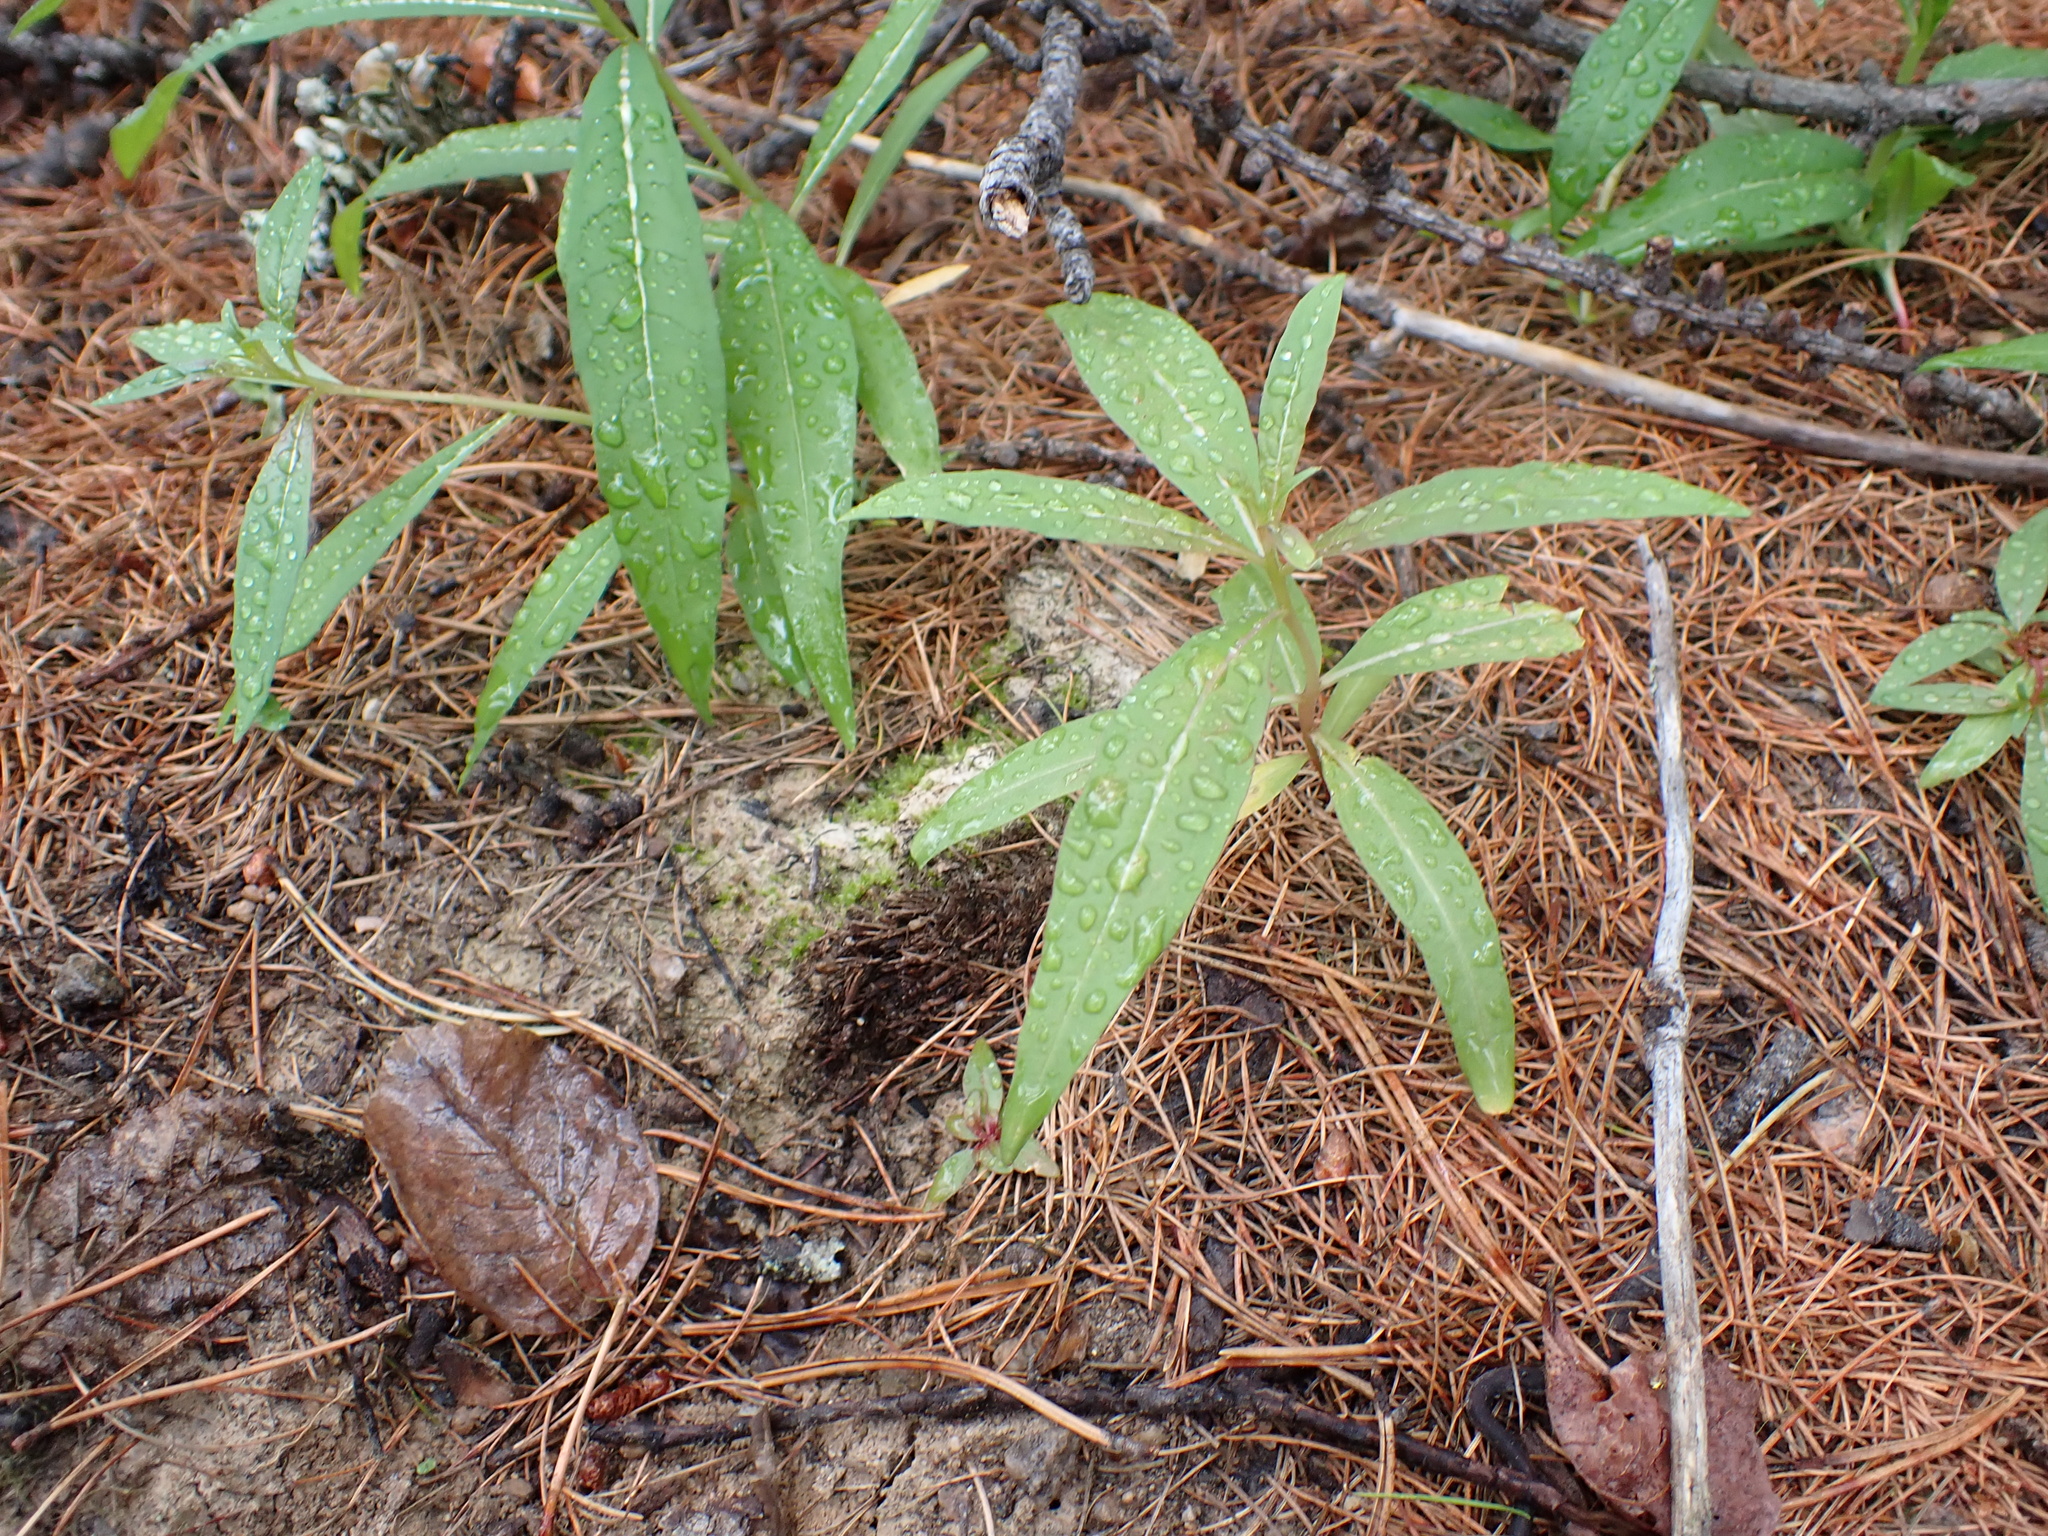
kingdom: Plantae
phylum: Tracheophyta
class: Magnoliopsida
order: Myrtales
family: Onagraceae
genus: Chamaenerion
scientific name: Chamaenerion angustifolium
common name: Fireweed
